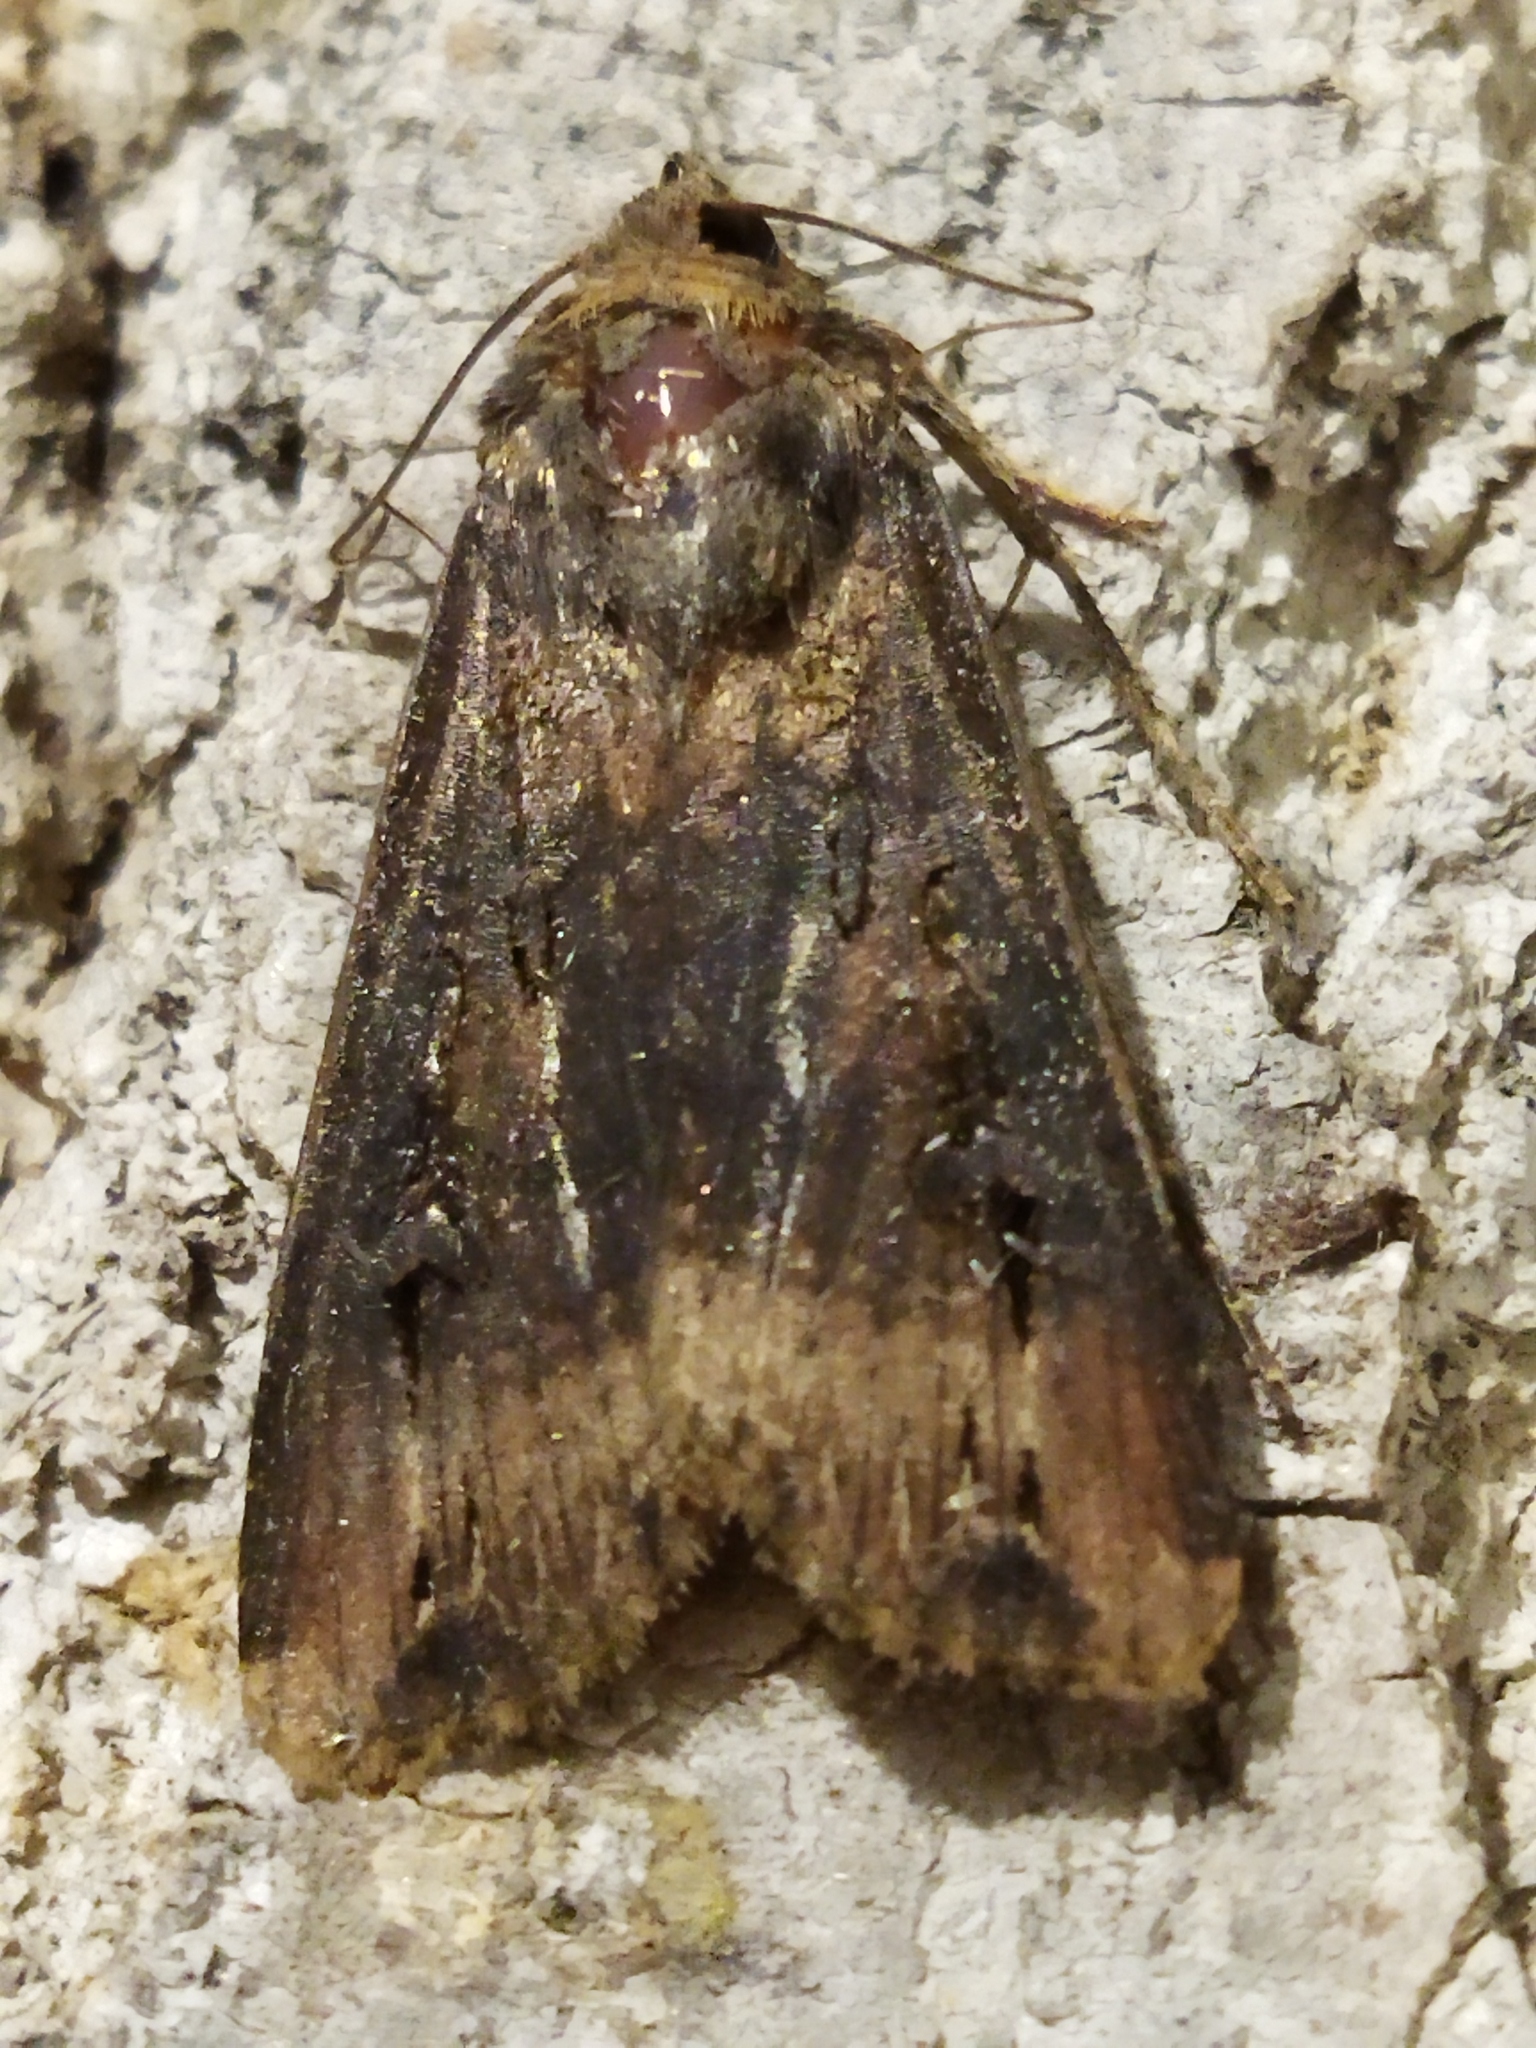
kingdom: Animalia
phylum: Arthropoda
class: Insecta
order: Lepidoptera
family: Noctuidae
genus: Agrotis
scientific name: Agrotis ipsilon
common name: Dark sword-grass
